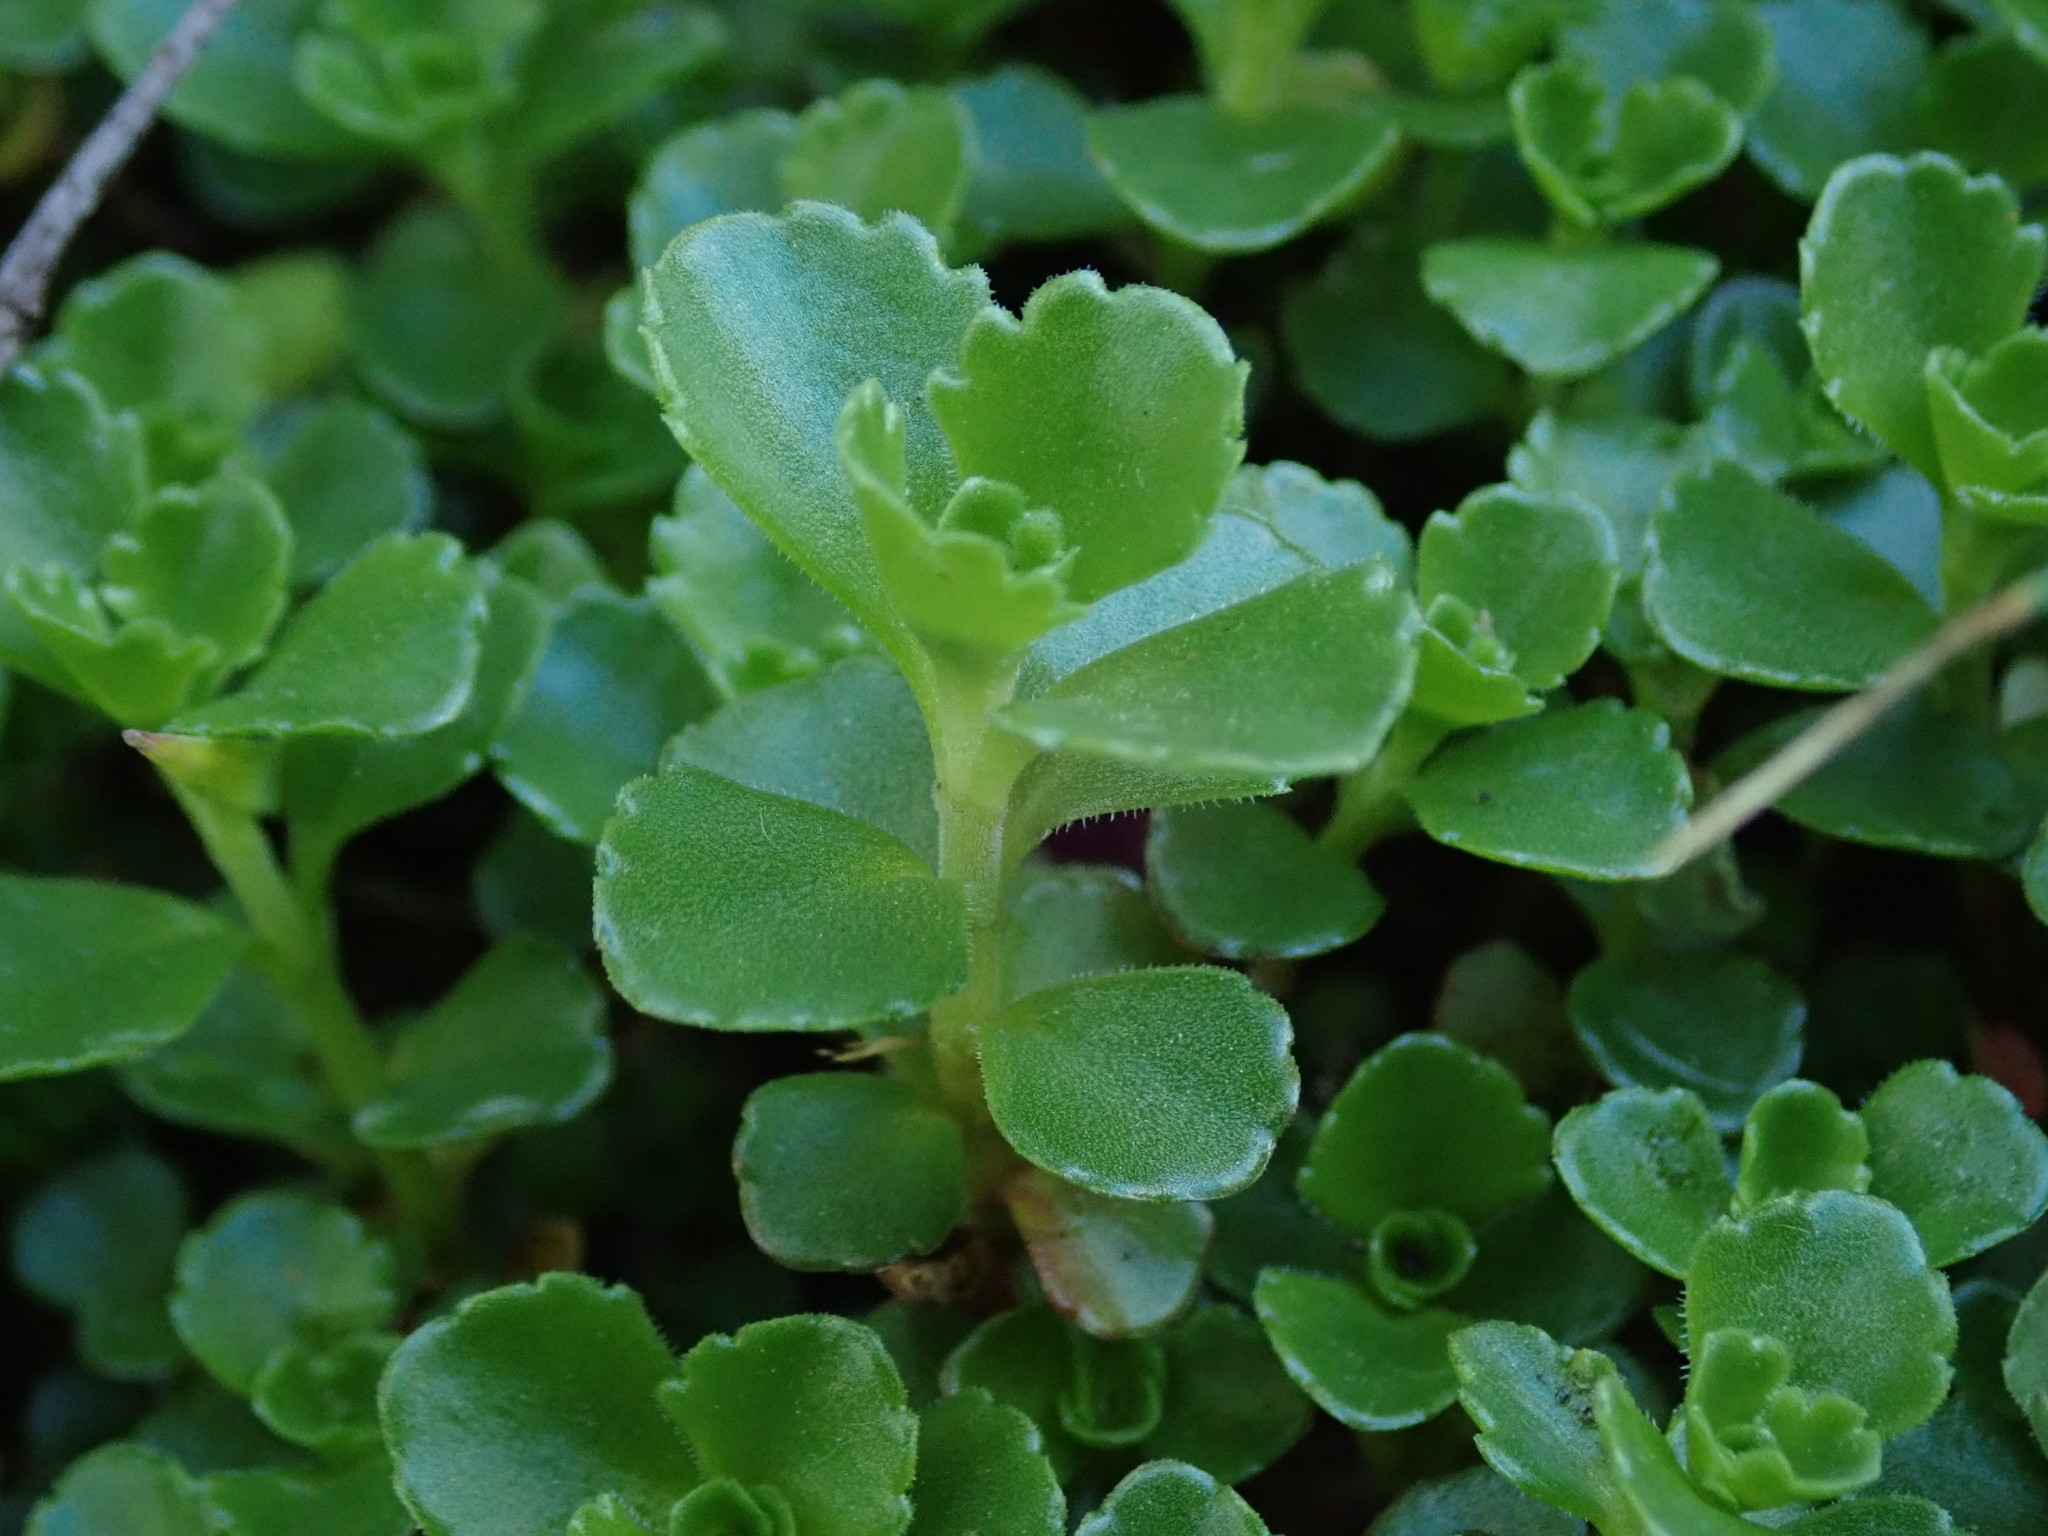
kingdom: Plantae
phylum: Tracheophyta
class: Magnoliopsida
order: Saxifragales
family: Crassulaceae
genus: Phedimus
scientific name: Phedimus spurius
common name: Caucasian stonecrop
